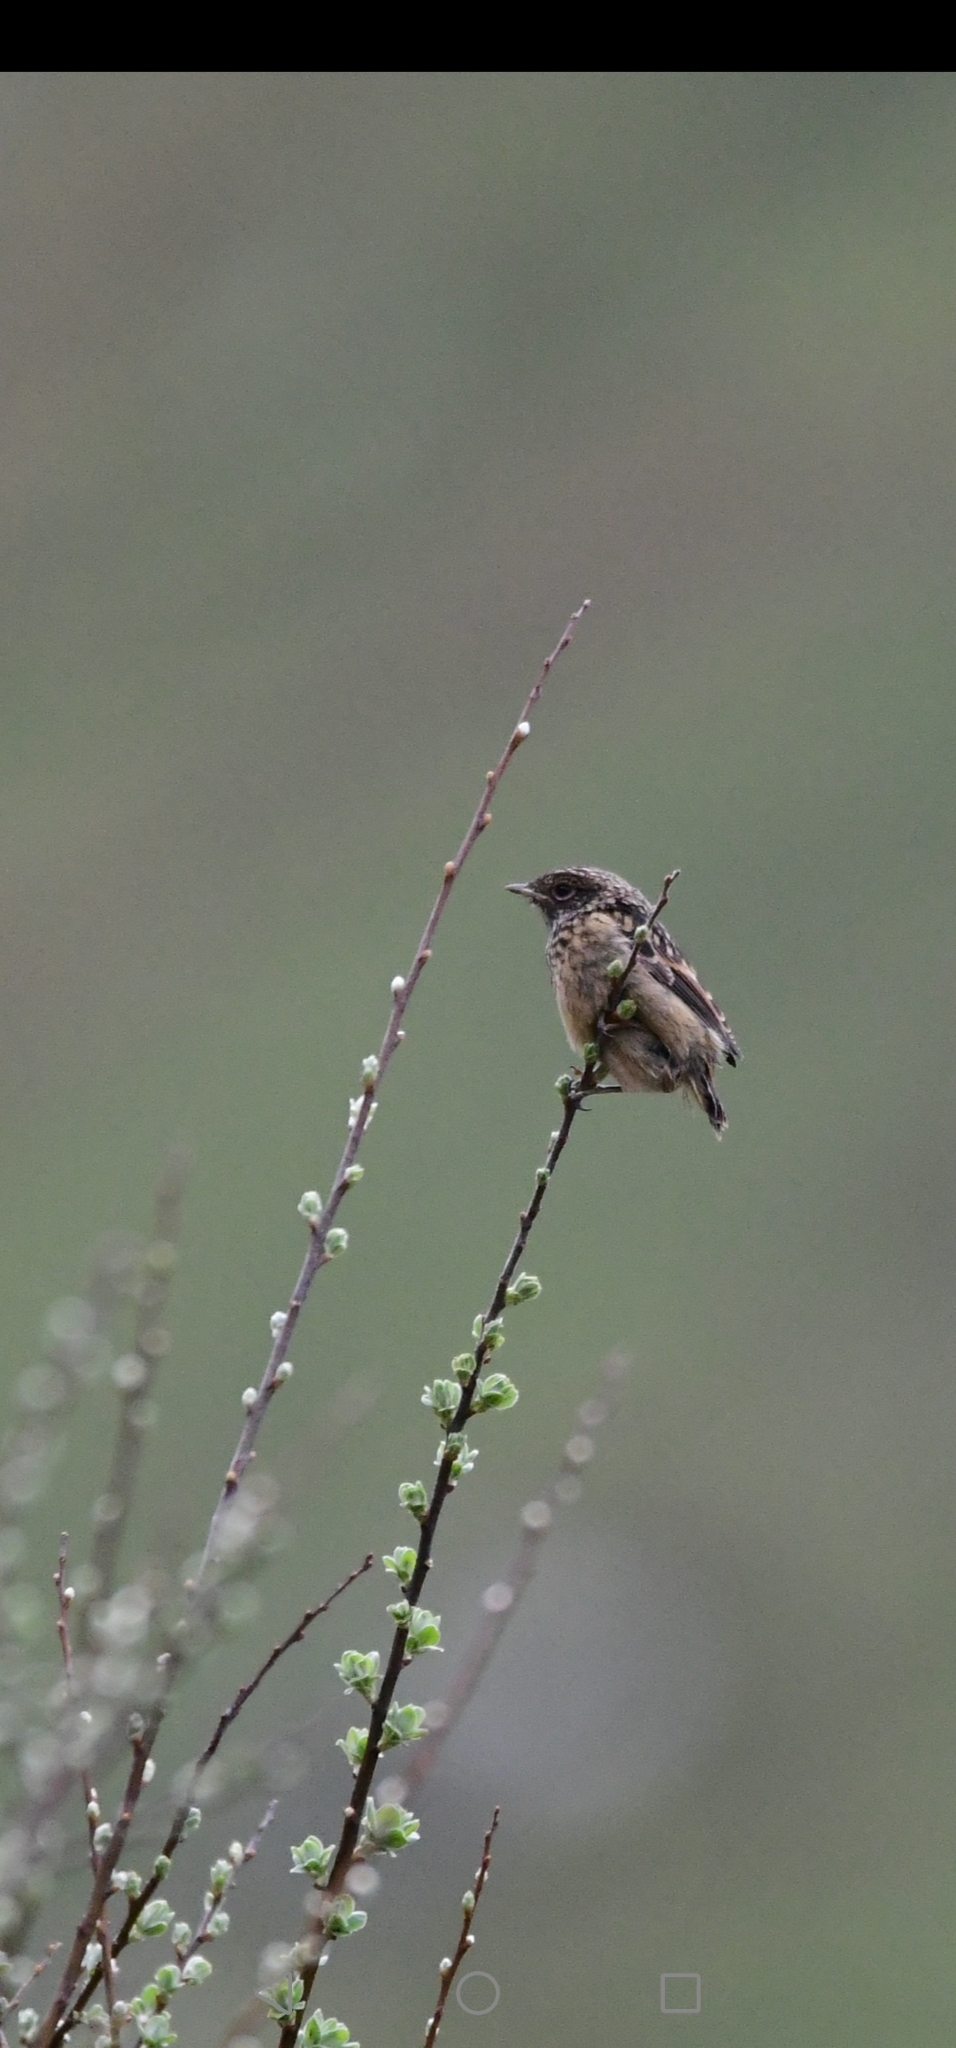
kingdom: Animalia
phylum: Chordata
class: Aves
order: Passeriformes
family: Muscicapidae
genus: Saxicola
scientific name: Saxicola rubicola
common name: European stonechat
